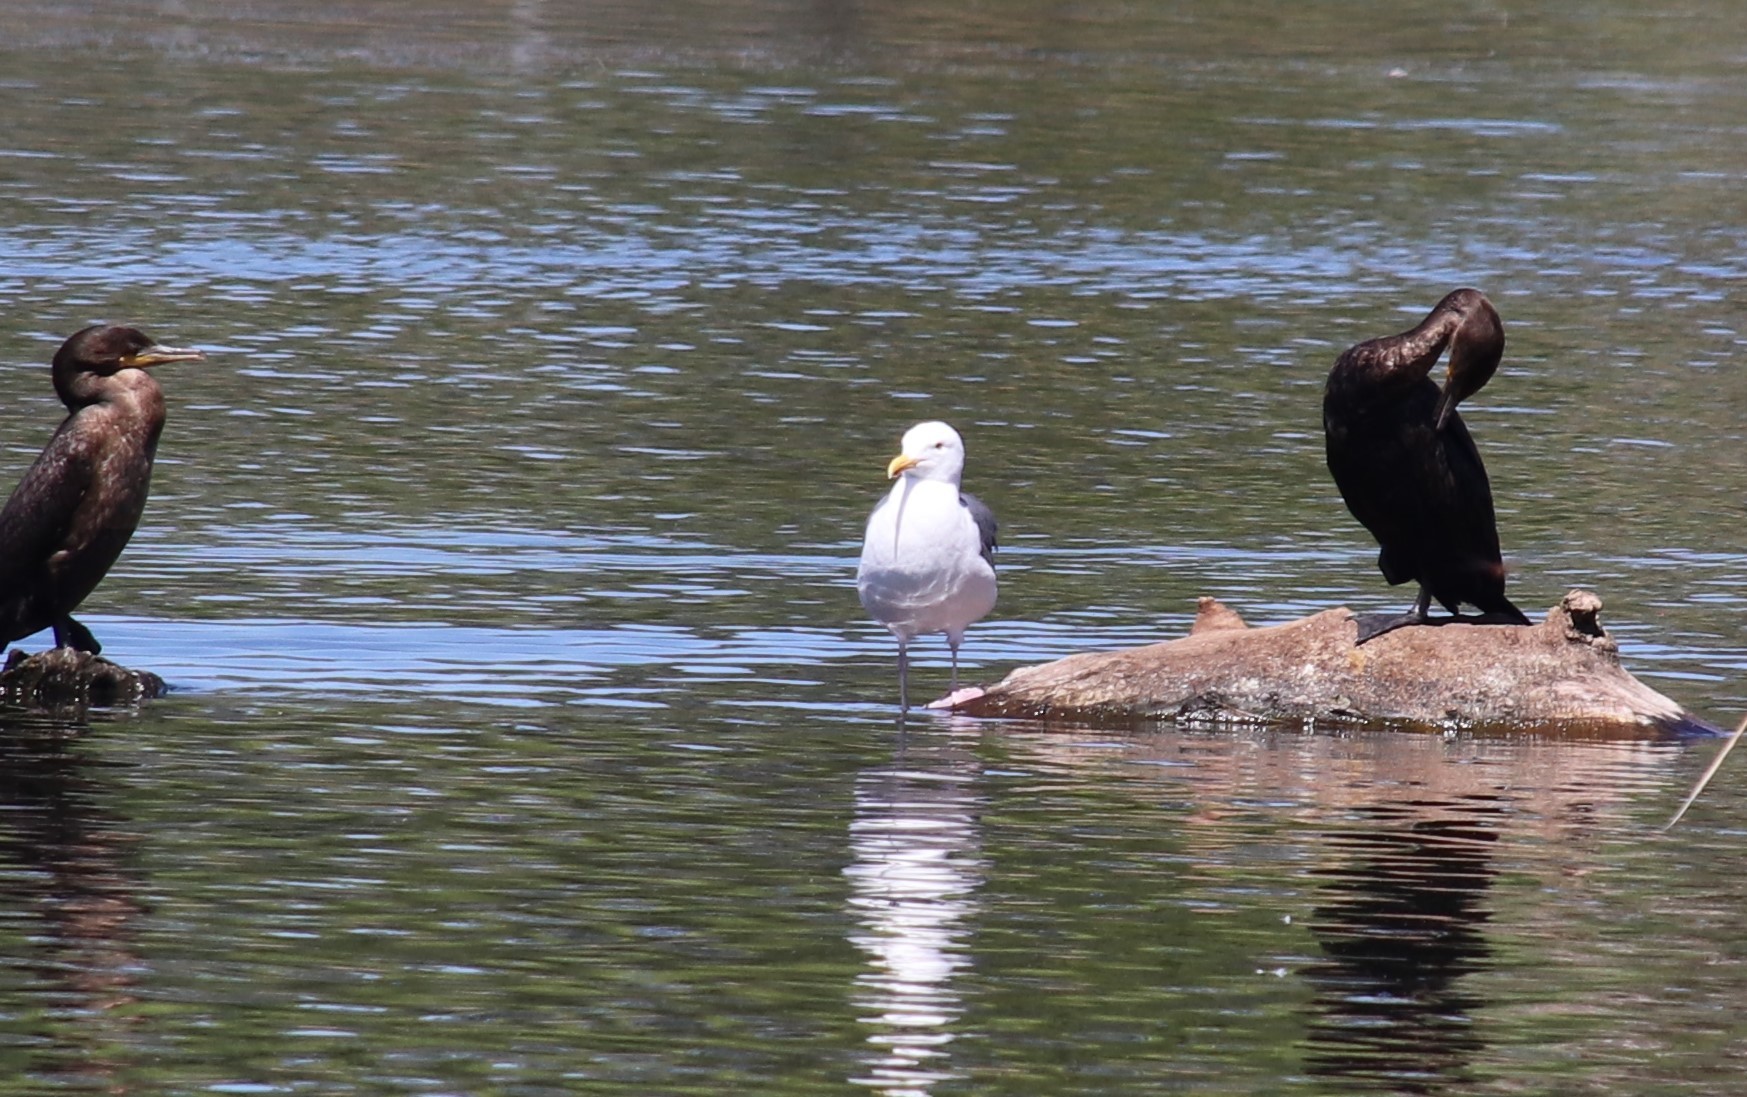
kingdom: Animalia
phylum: Chordata
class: Aves
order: Charadriiformes
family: Laridae
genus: Larus
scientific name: Larus occidentalis
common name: Western gull
